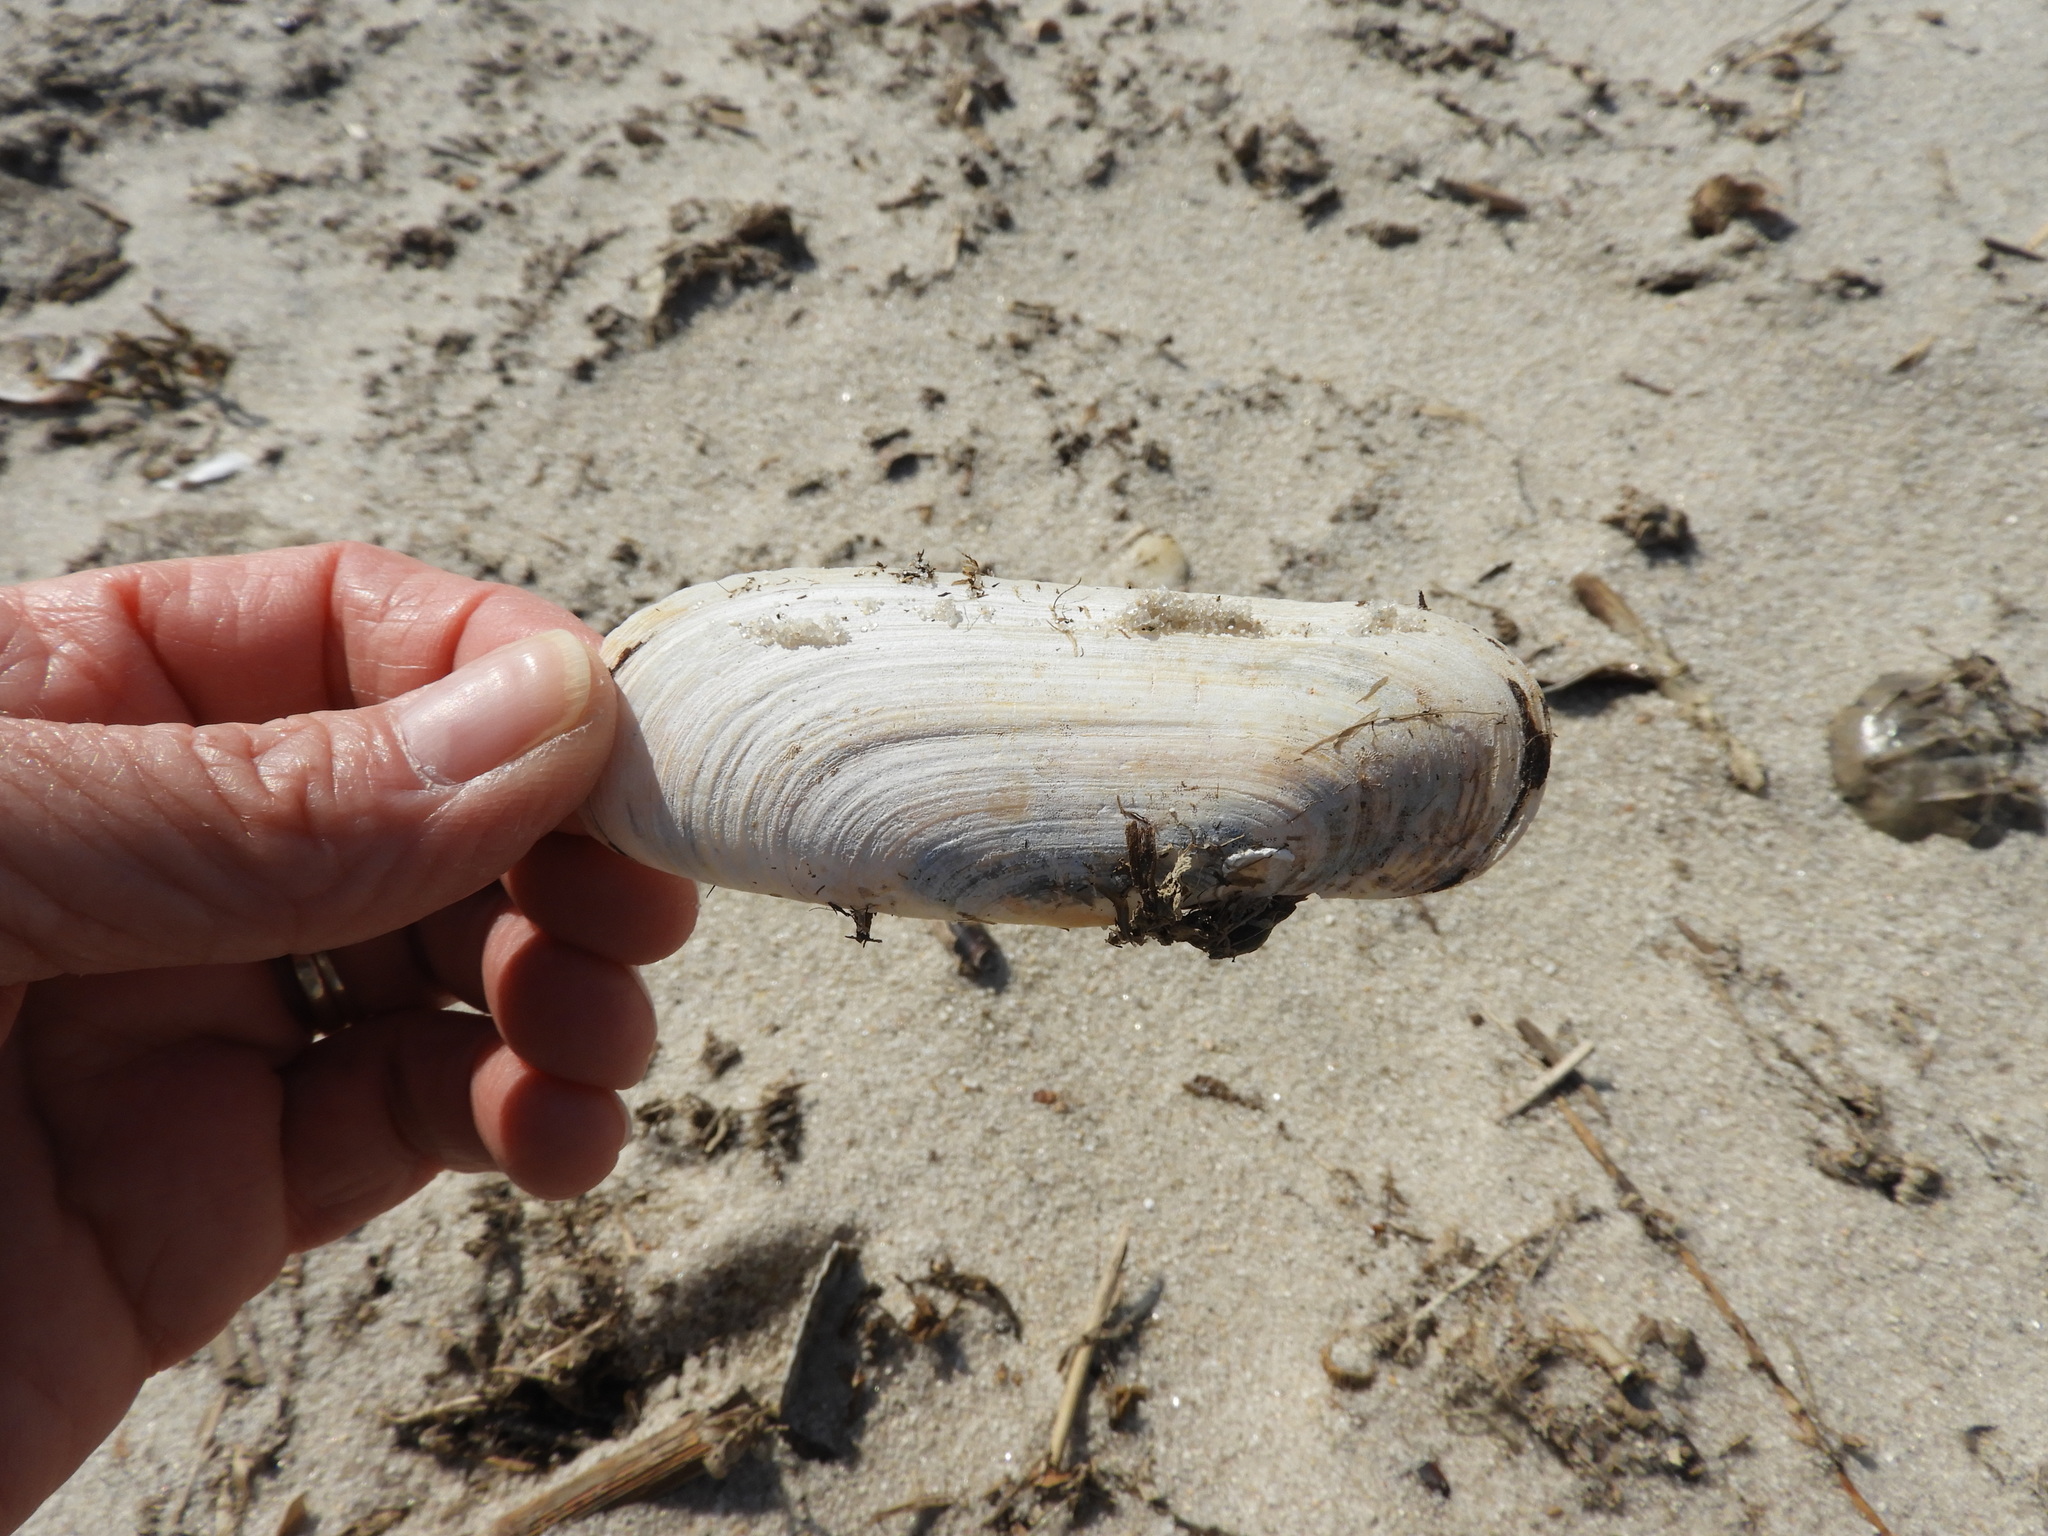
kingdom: Animalia
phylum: Mollusca
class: Bivalvia
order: Cardiida
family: Solecurtidae
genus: Tagelus
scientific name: Tagelus plebeius
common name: Stout tagelus
